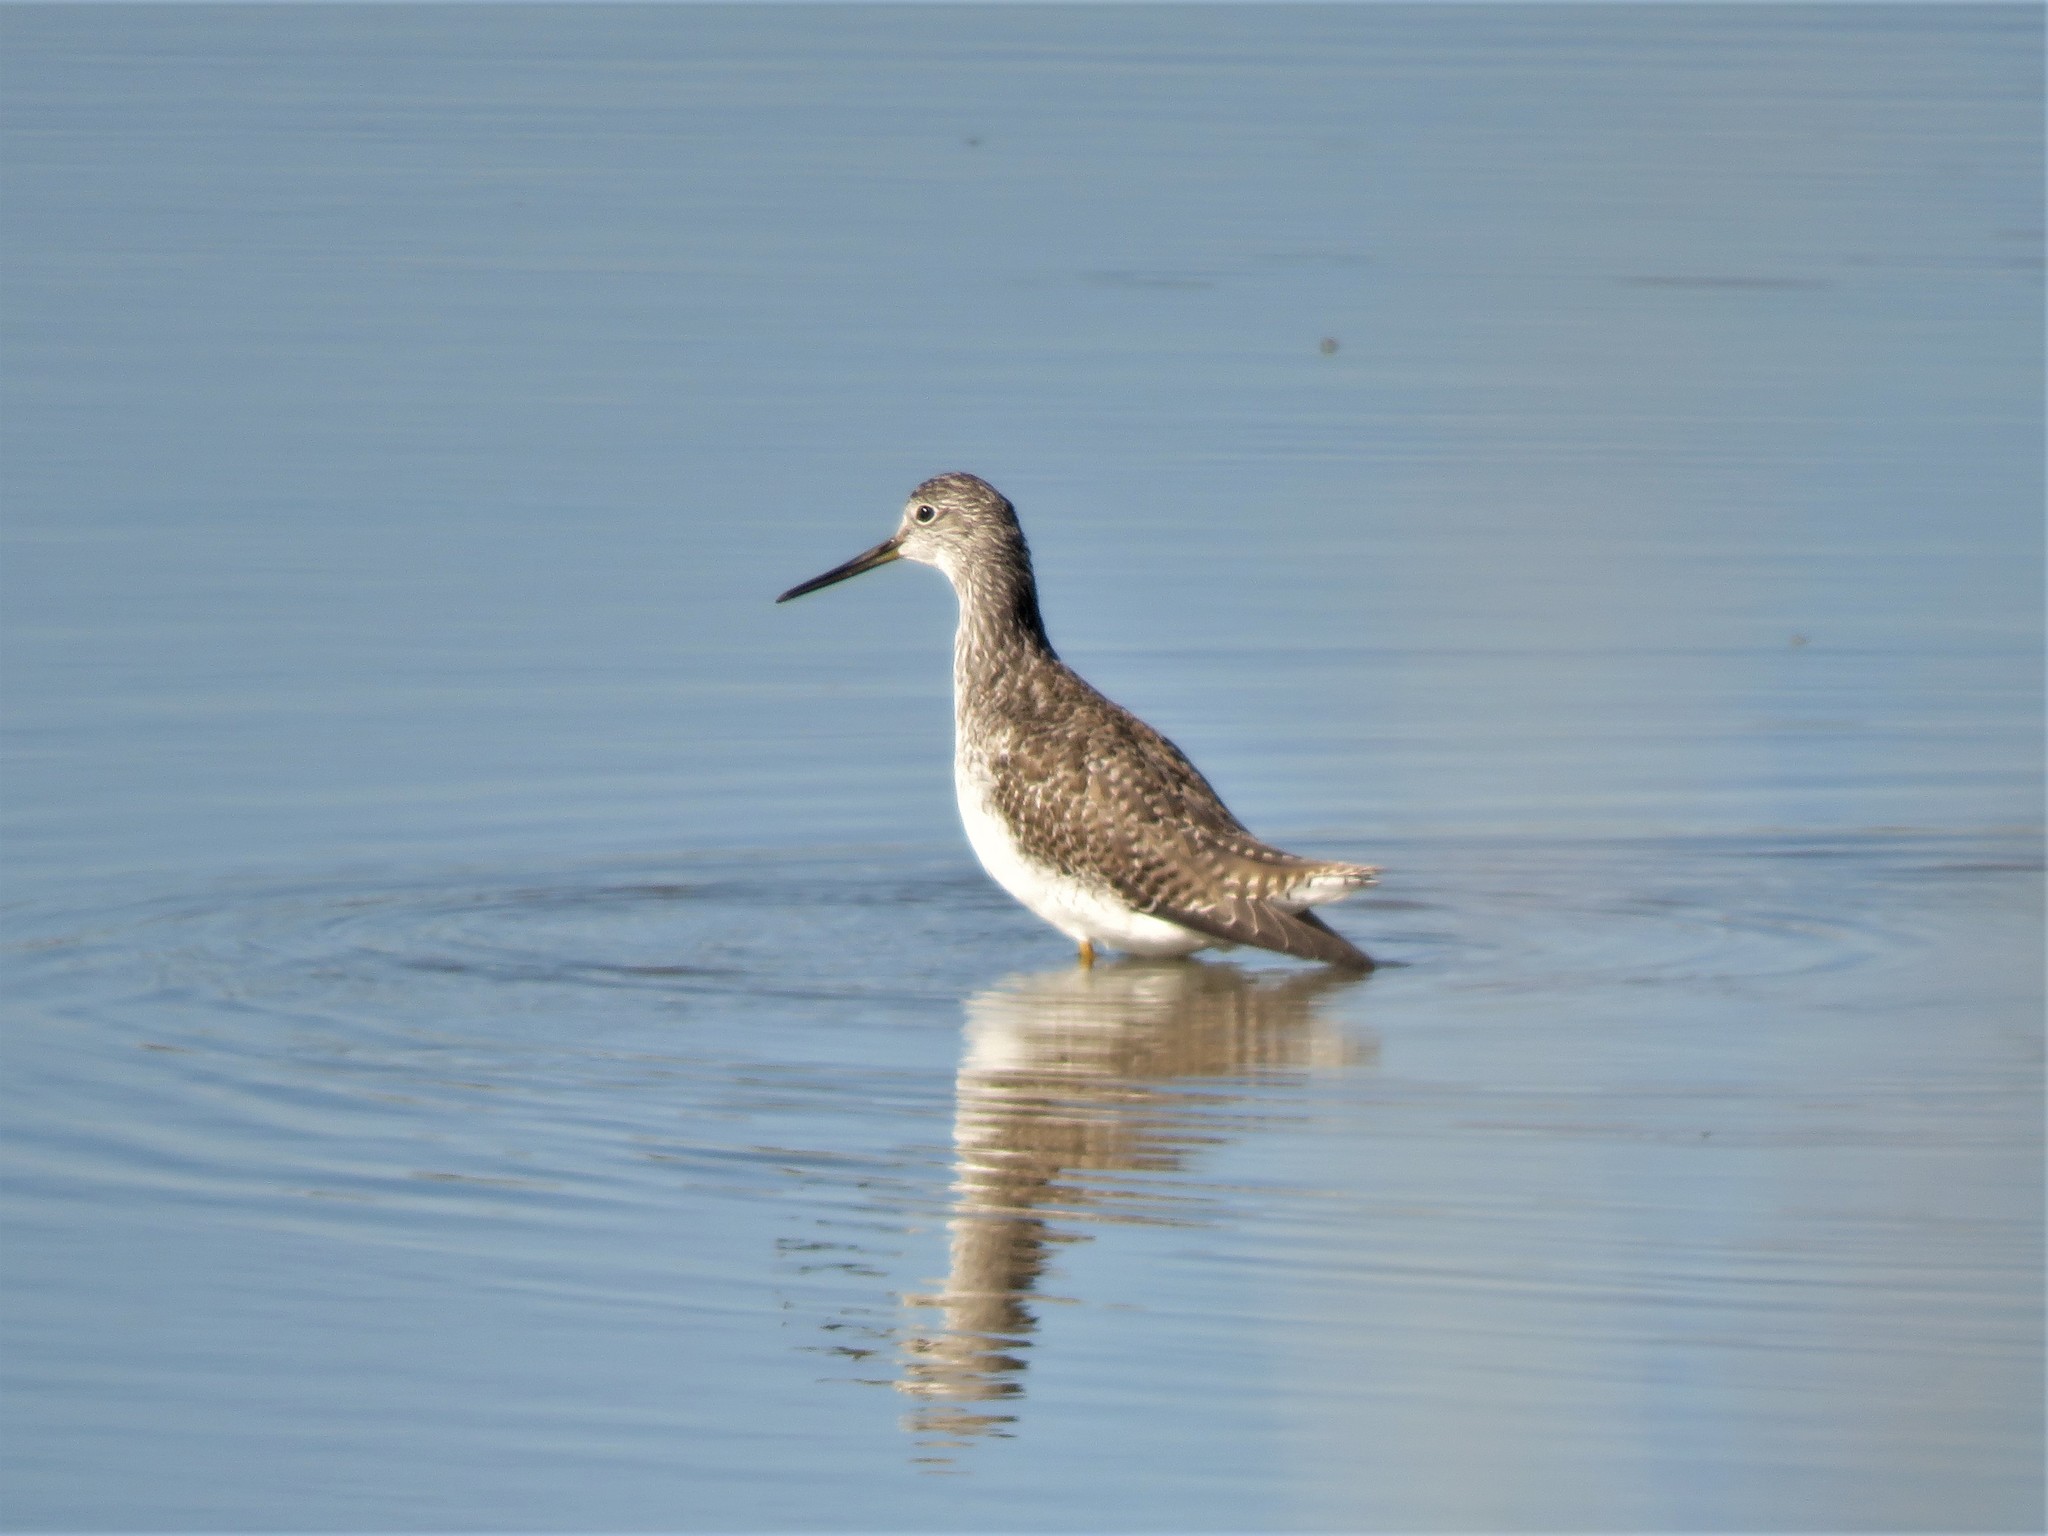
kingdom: Animalia
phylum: Chordata
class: Aves
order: Charadriiformes
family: Scolopacidae
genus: Tringa
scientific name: Tringa melanoleuca
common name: Greater yellowlegs
